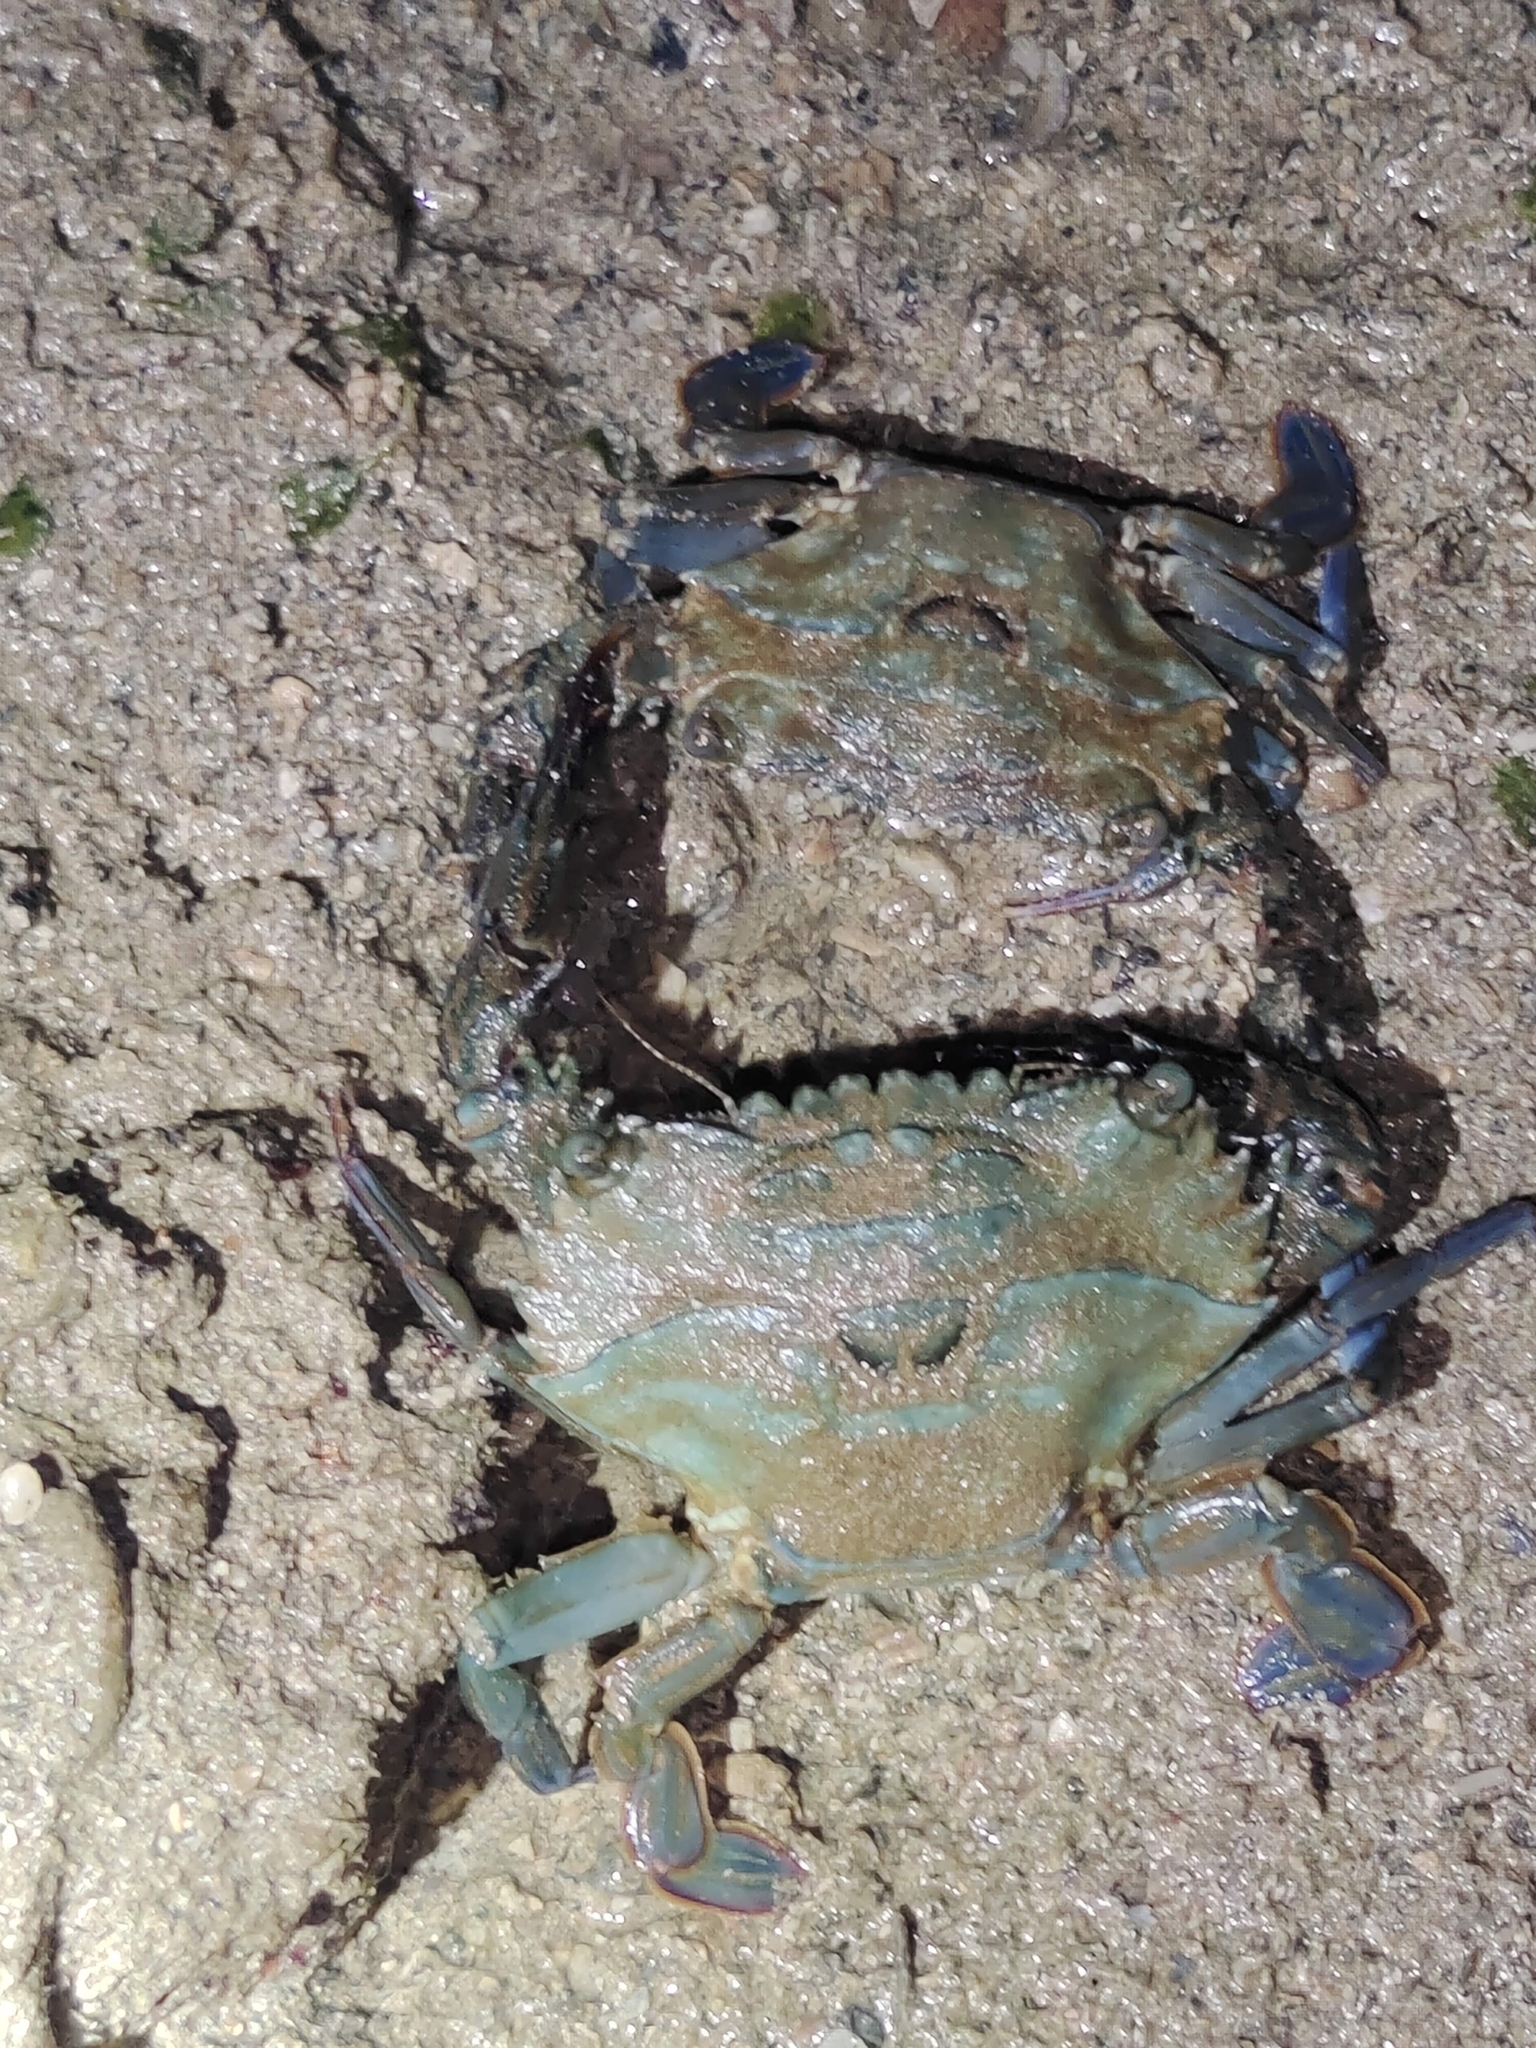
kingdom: Animalia
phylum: Arthropoda
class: Malacostraca
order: Decapoda
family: Portunidae
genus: Thalamita
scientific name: Thalamita danae
